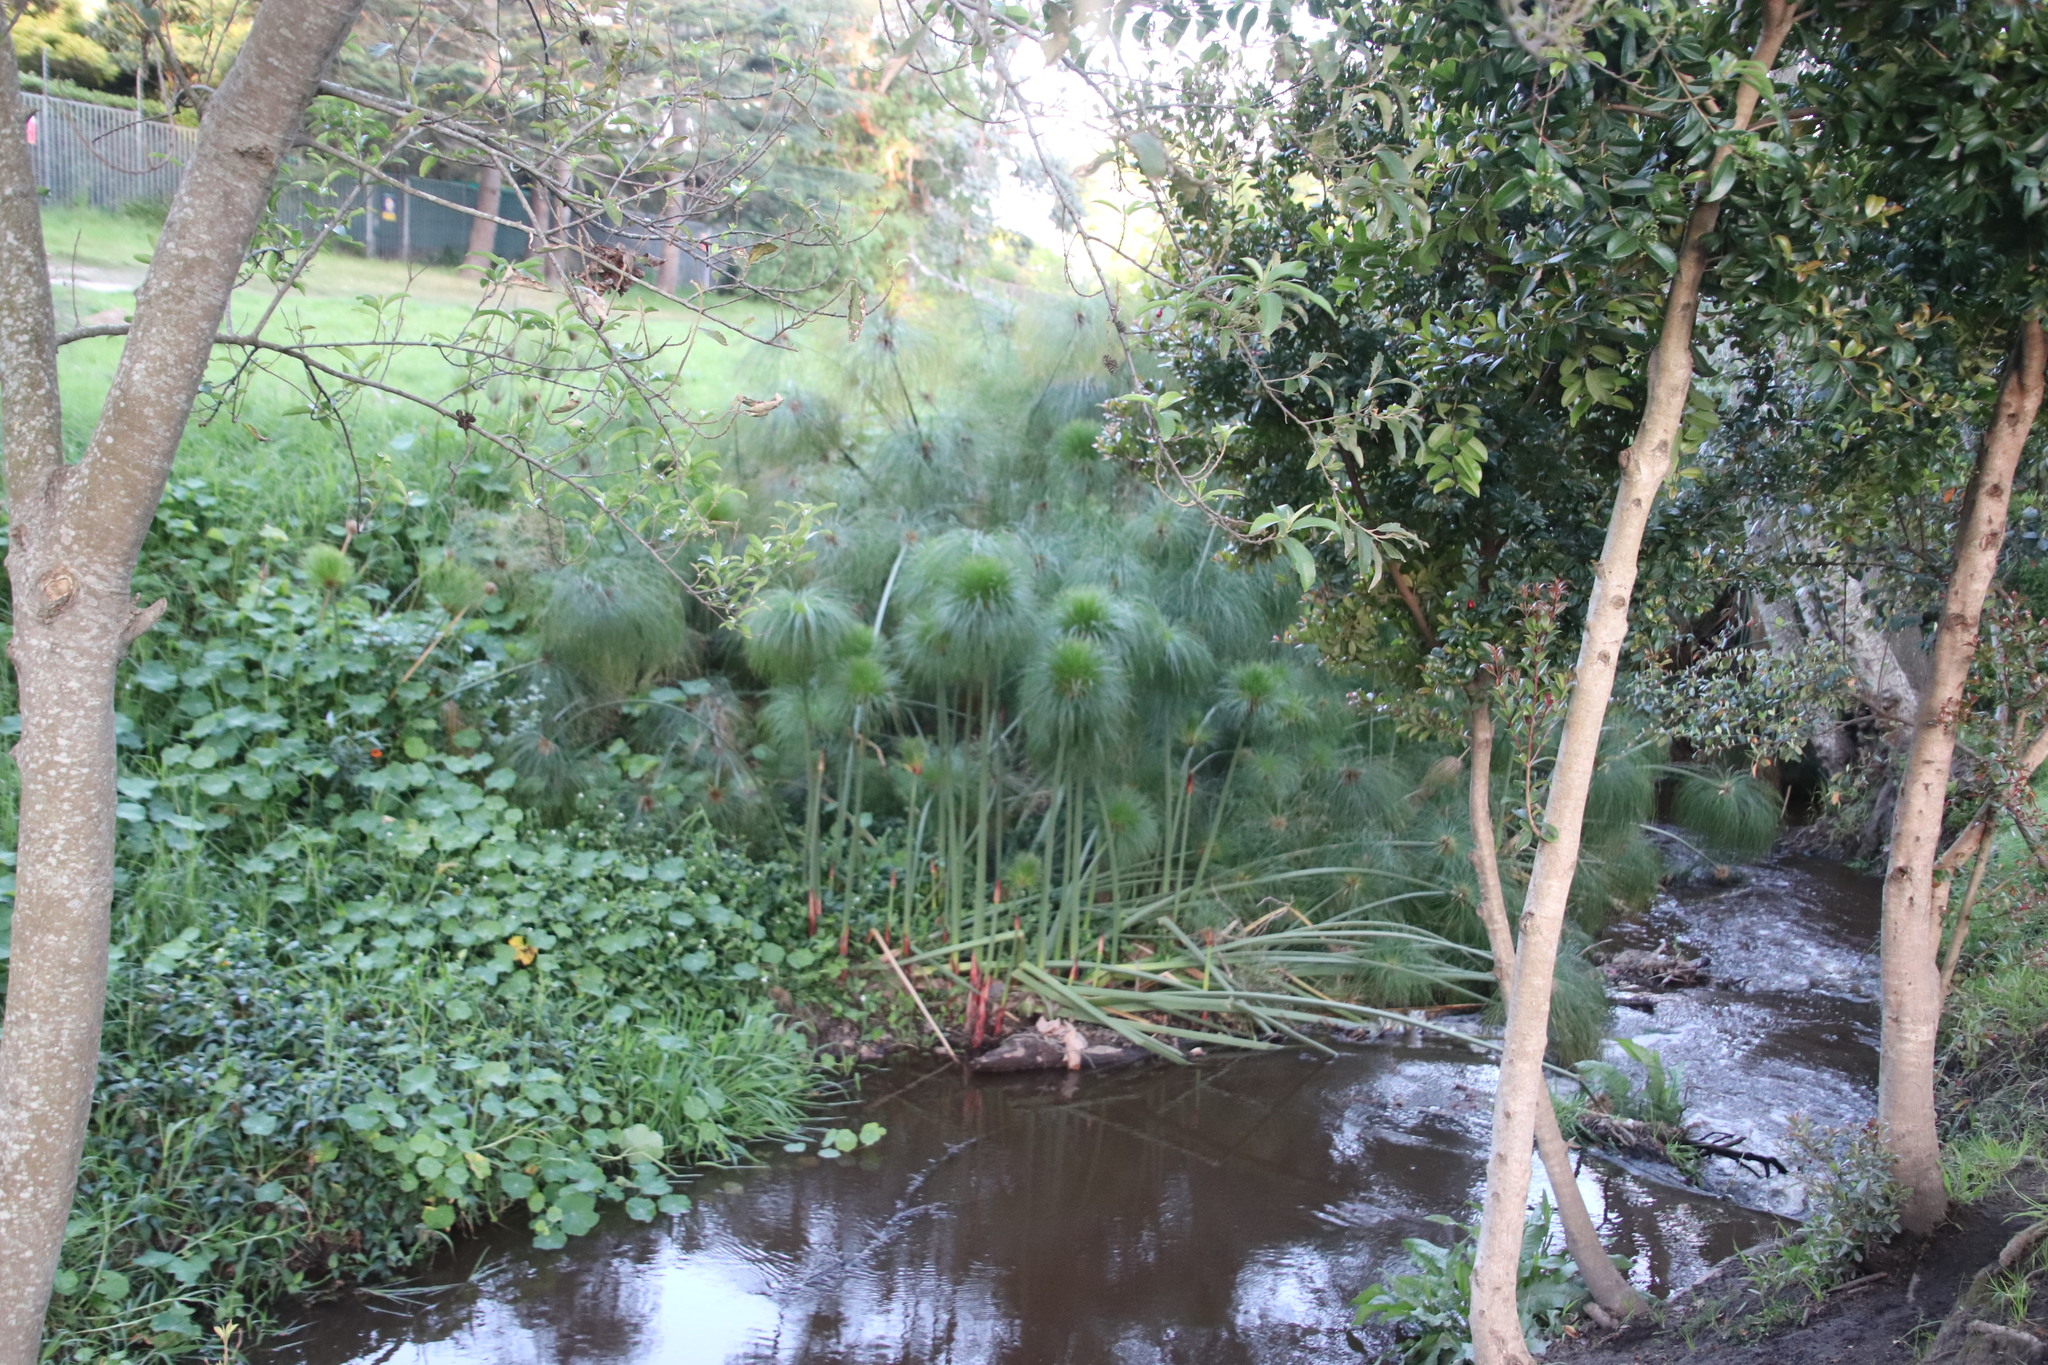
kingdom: Plantae
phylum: Tracheophyta
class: Liliopsida
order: Poales
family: Cyperaceae
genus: Cyperus
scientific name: Cyperus papyrus
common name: Papyrus
